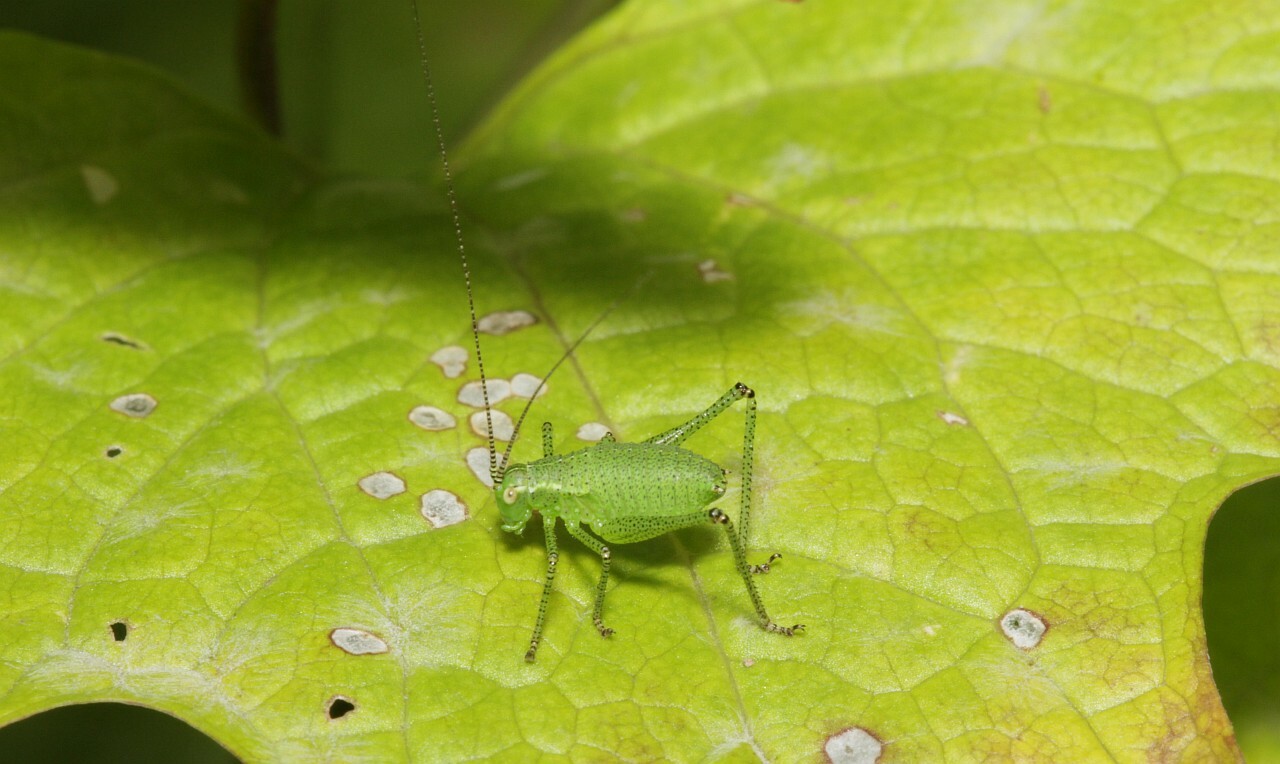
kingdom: Animalia
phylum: Arthropoda
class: Insecta
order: Orthoptera
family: Tettigoniidae
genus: Leptophyes
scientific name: Leptophyes punctatissima
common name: Speckled bush-cricket
